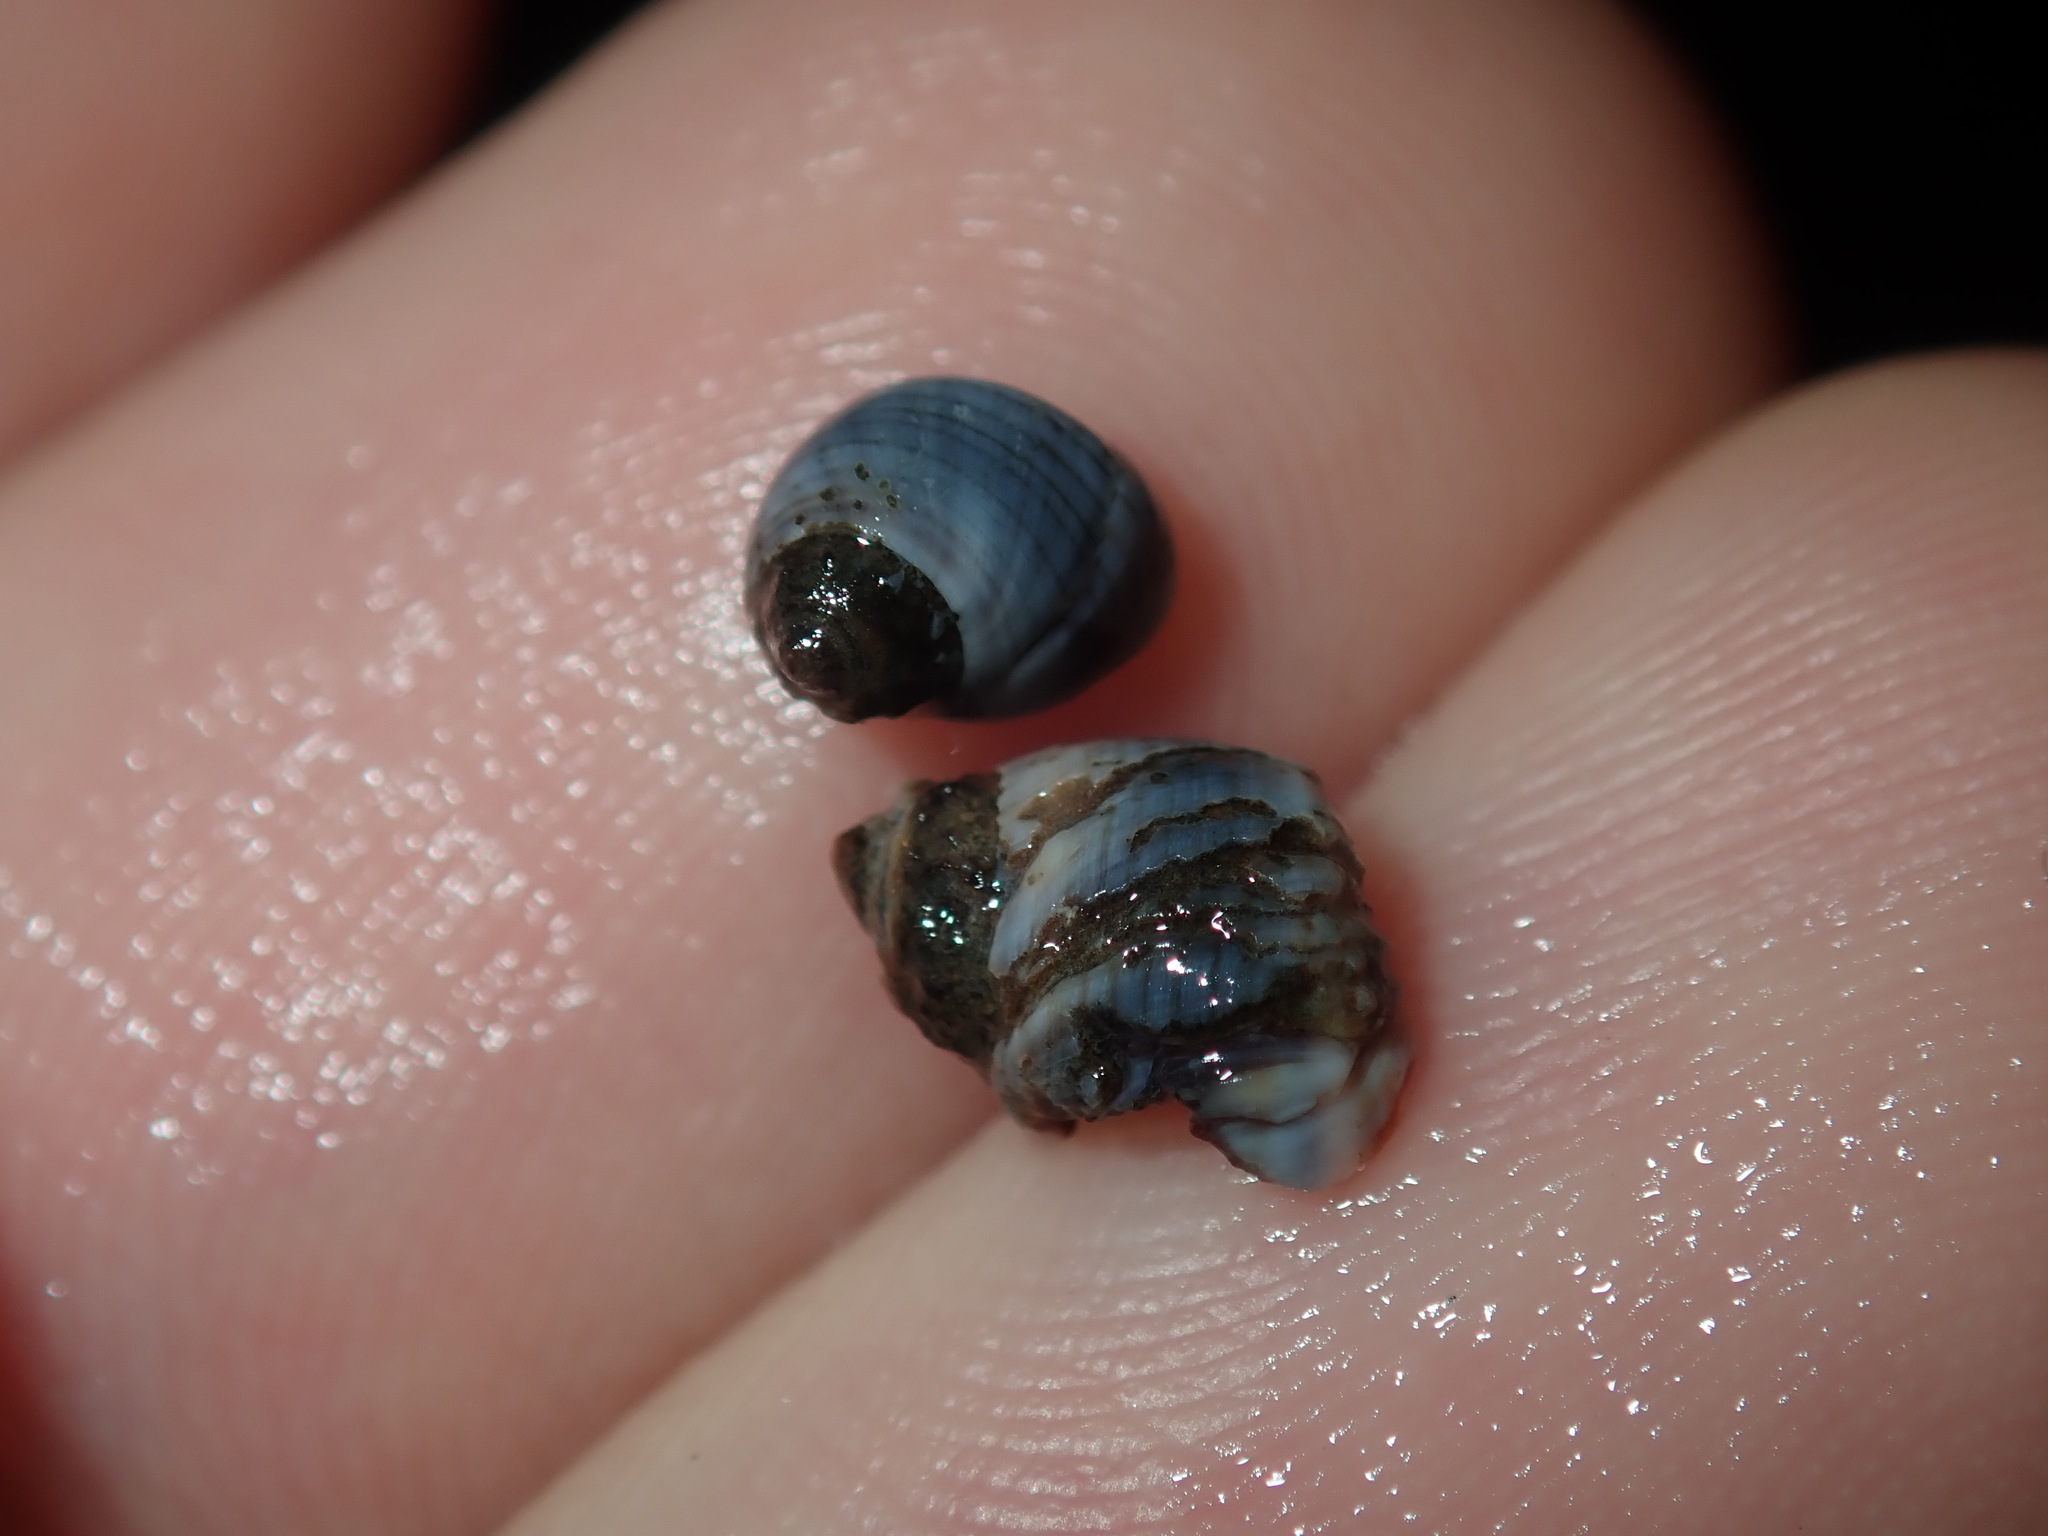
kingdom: Animalia
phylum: Mollusca
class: Gastropoda
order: Littorinimorpha
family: Littorinidae
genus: Austrolittorina
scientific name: Austrolittorina unifasciata
